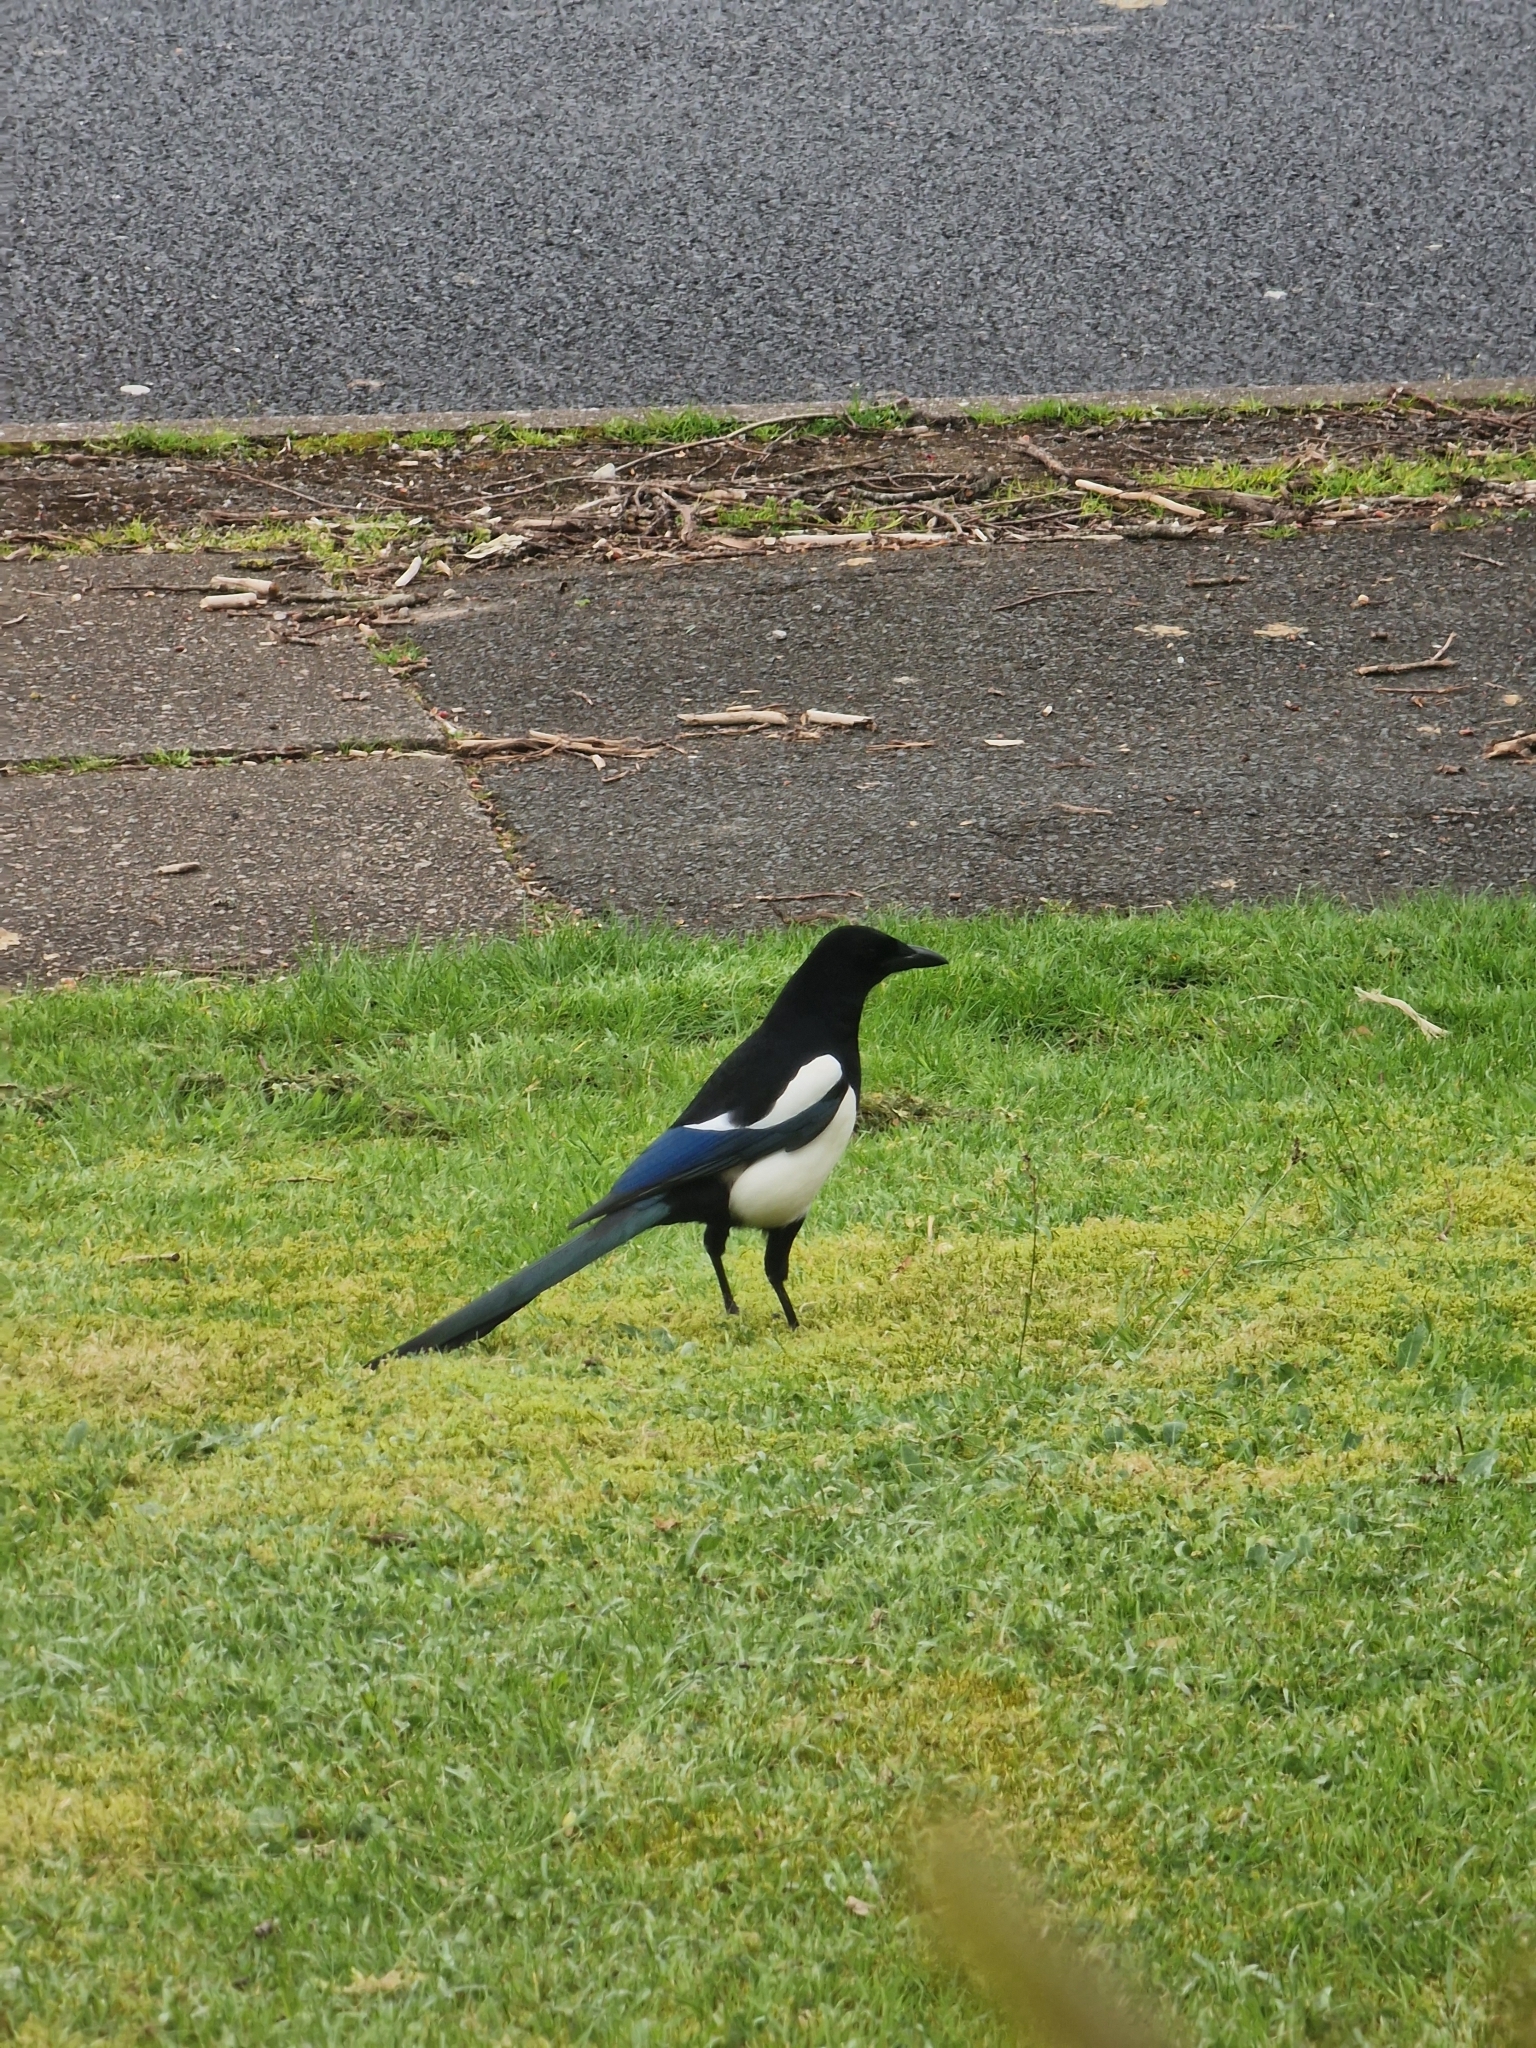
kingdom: Animalia
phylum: Chordata
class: Aves
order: Passeriformes
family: Corvidae
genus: Pica
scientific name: Pica pica
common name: Eurasian magpie
